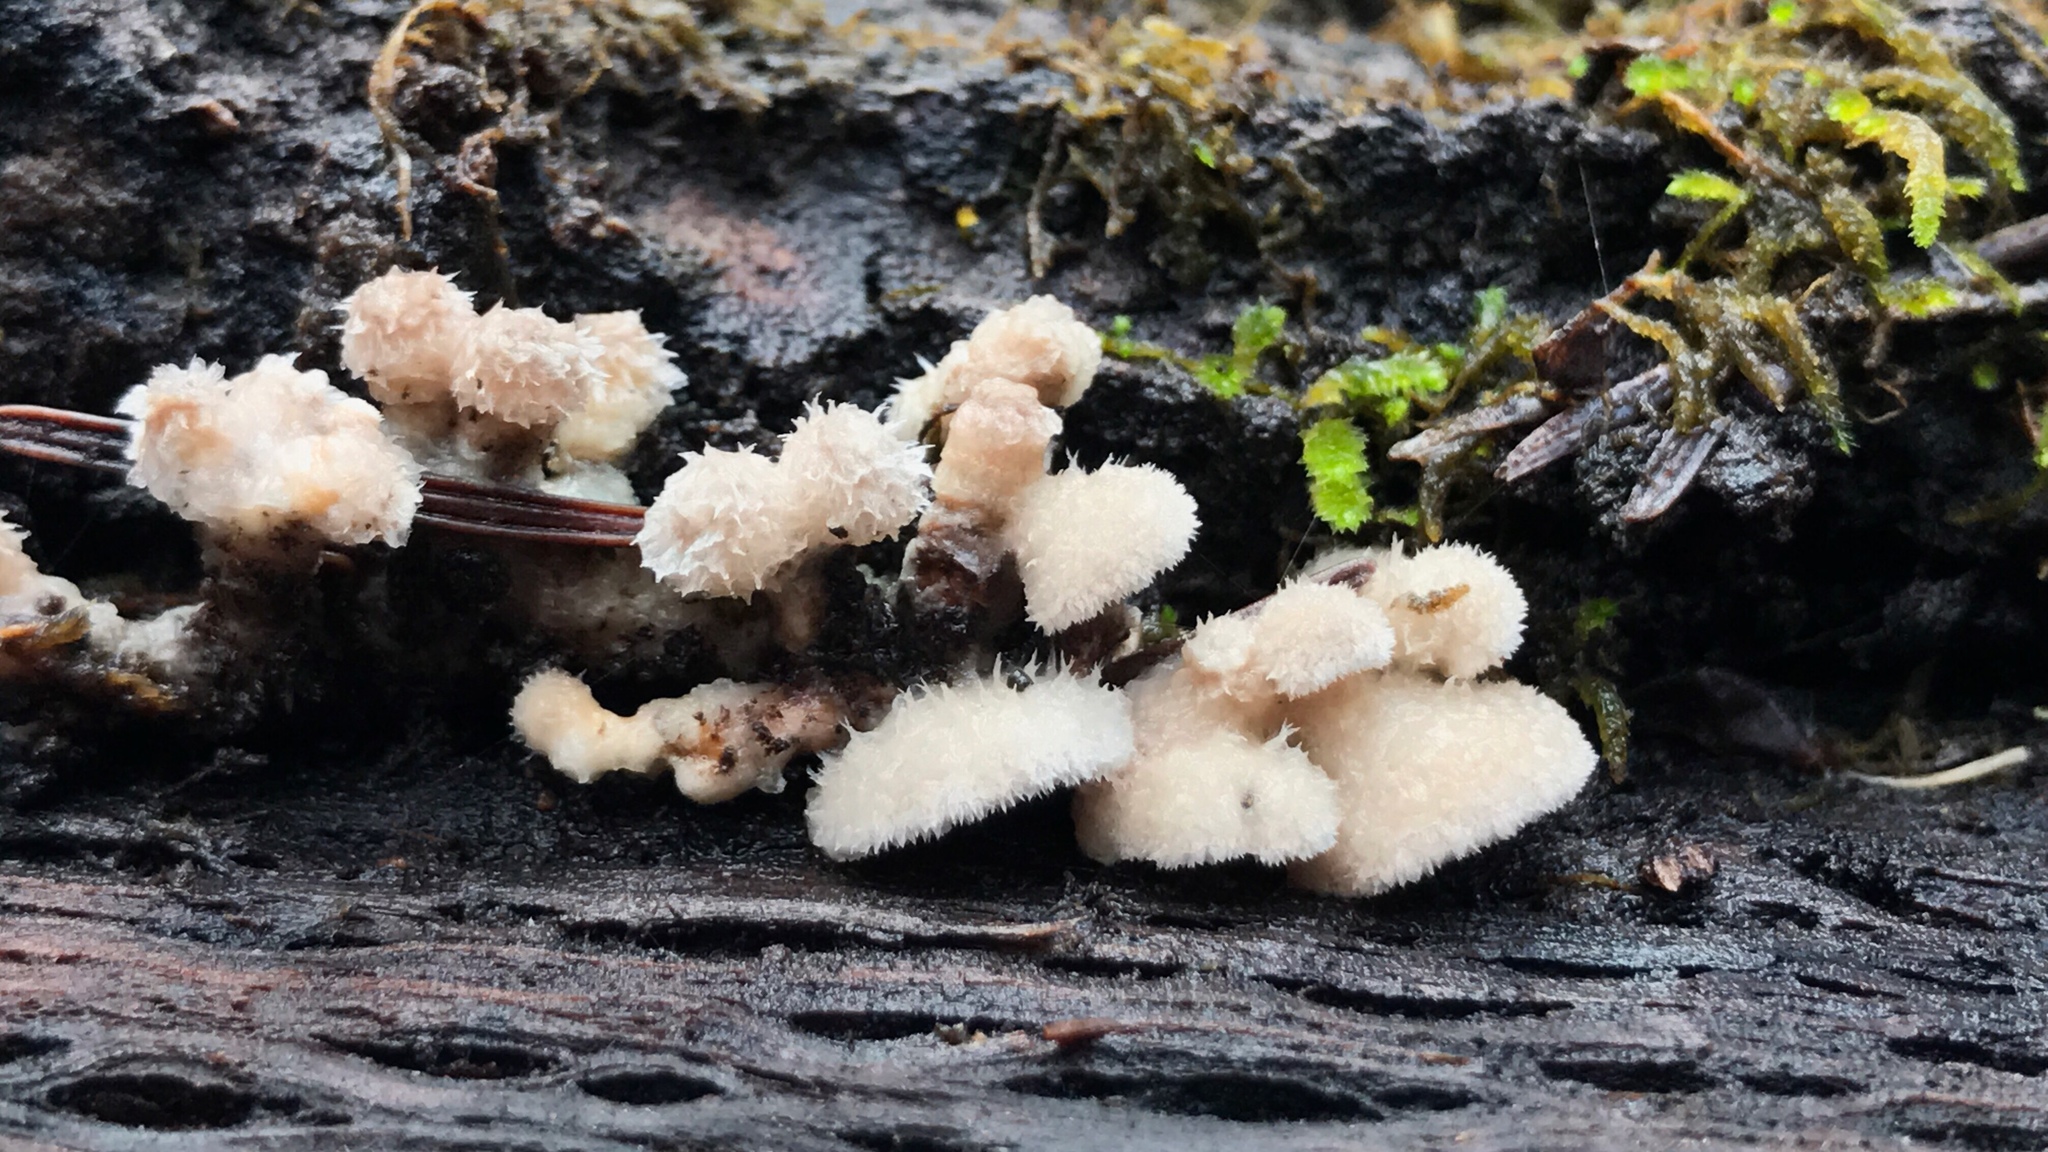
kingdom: Fungi
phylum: Basidiomycota
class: Agaricomycetes
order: Agaricales
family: Schizophyllaceae
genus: Schizophyllum
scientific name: Schizophyllum commune
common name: Common porecrust
